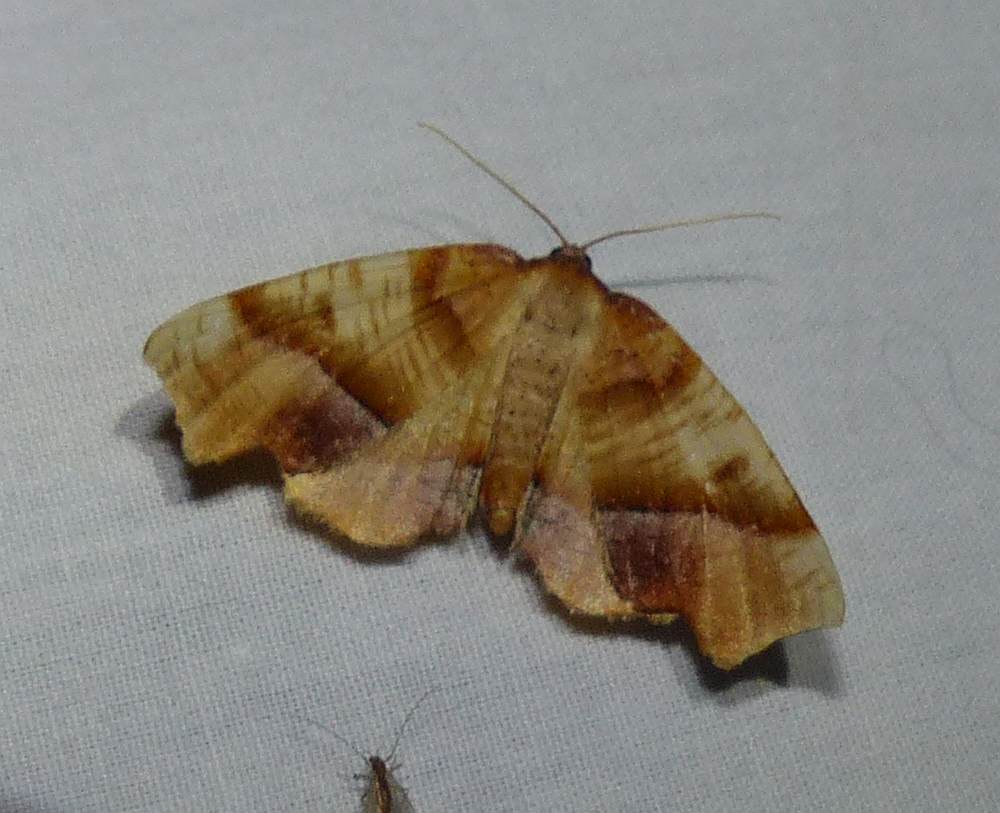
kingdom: Animalia
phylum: Arthropoda
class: Insecta
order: Lepidoptera
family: Geometridae
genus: Plagodis
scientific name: Plagodis phlogosaria
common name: Straight-lined plagodis
